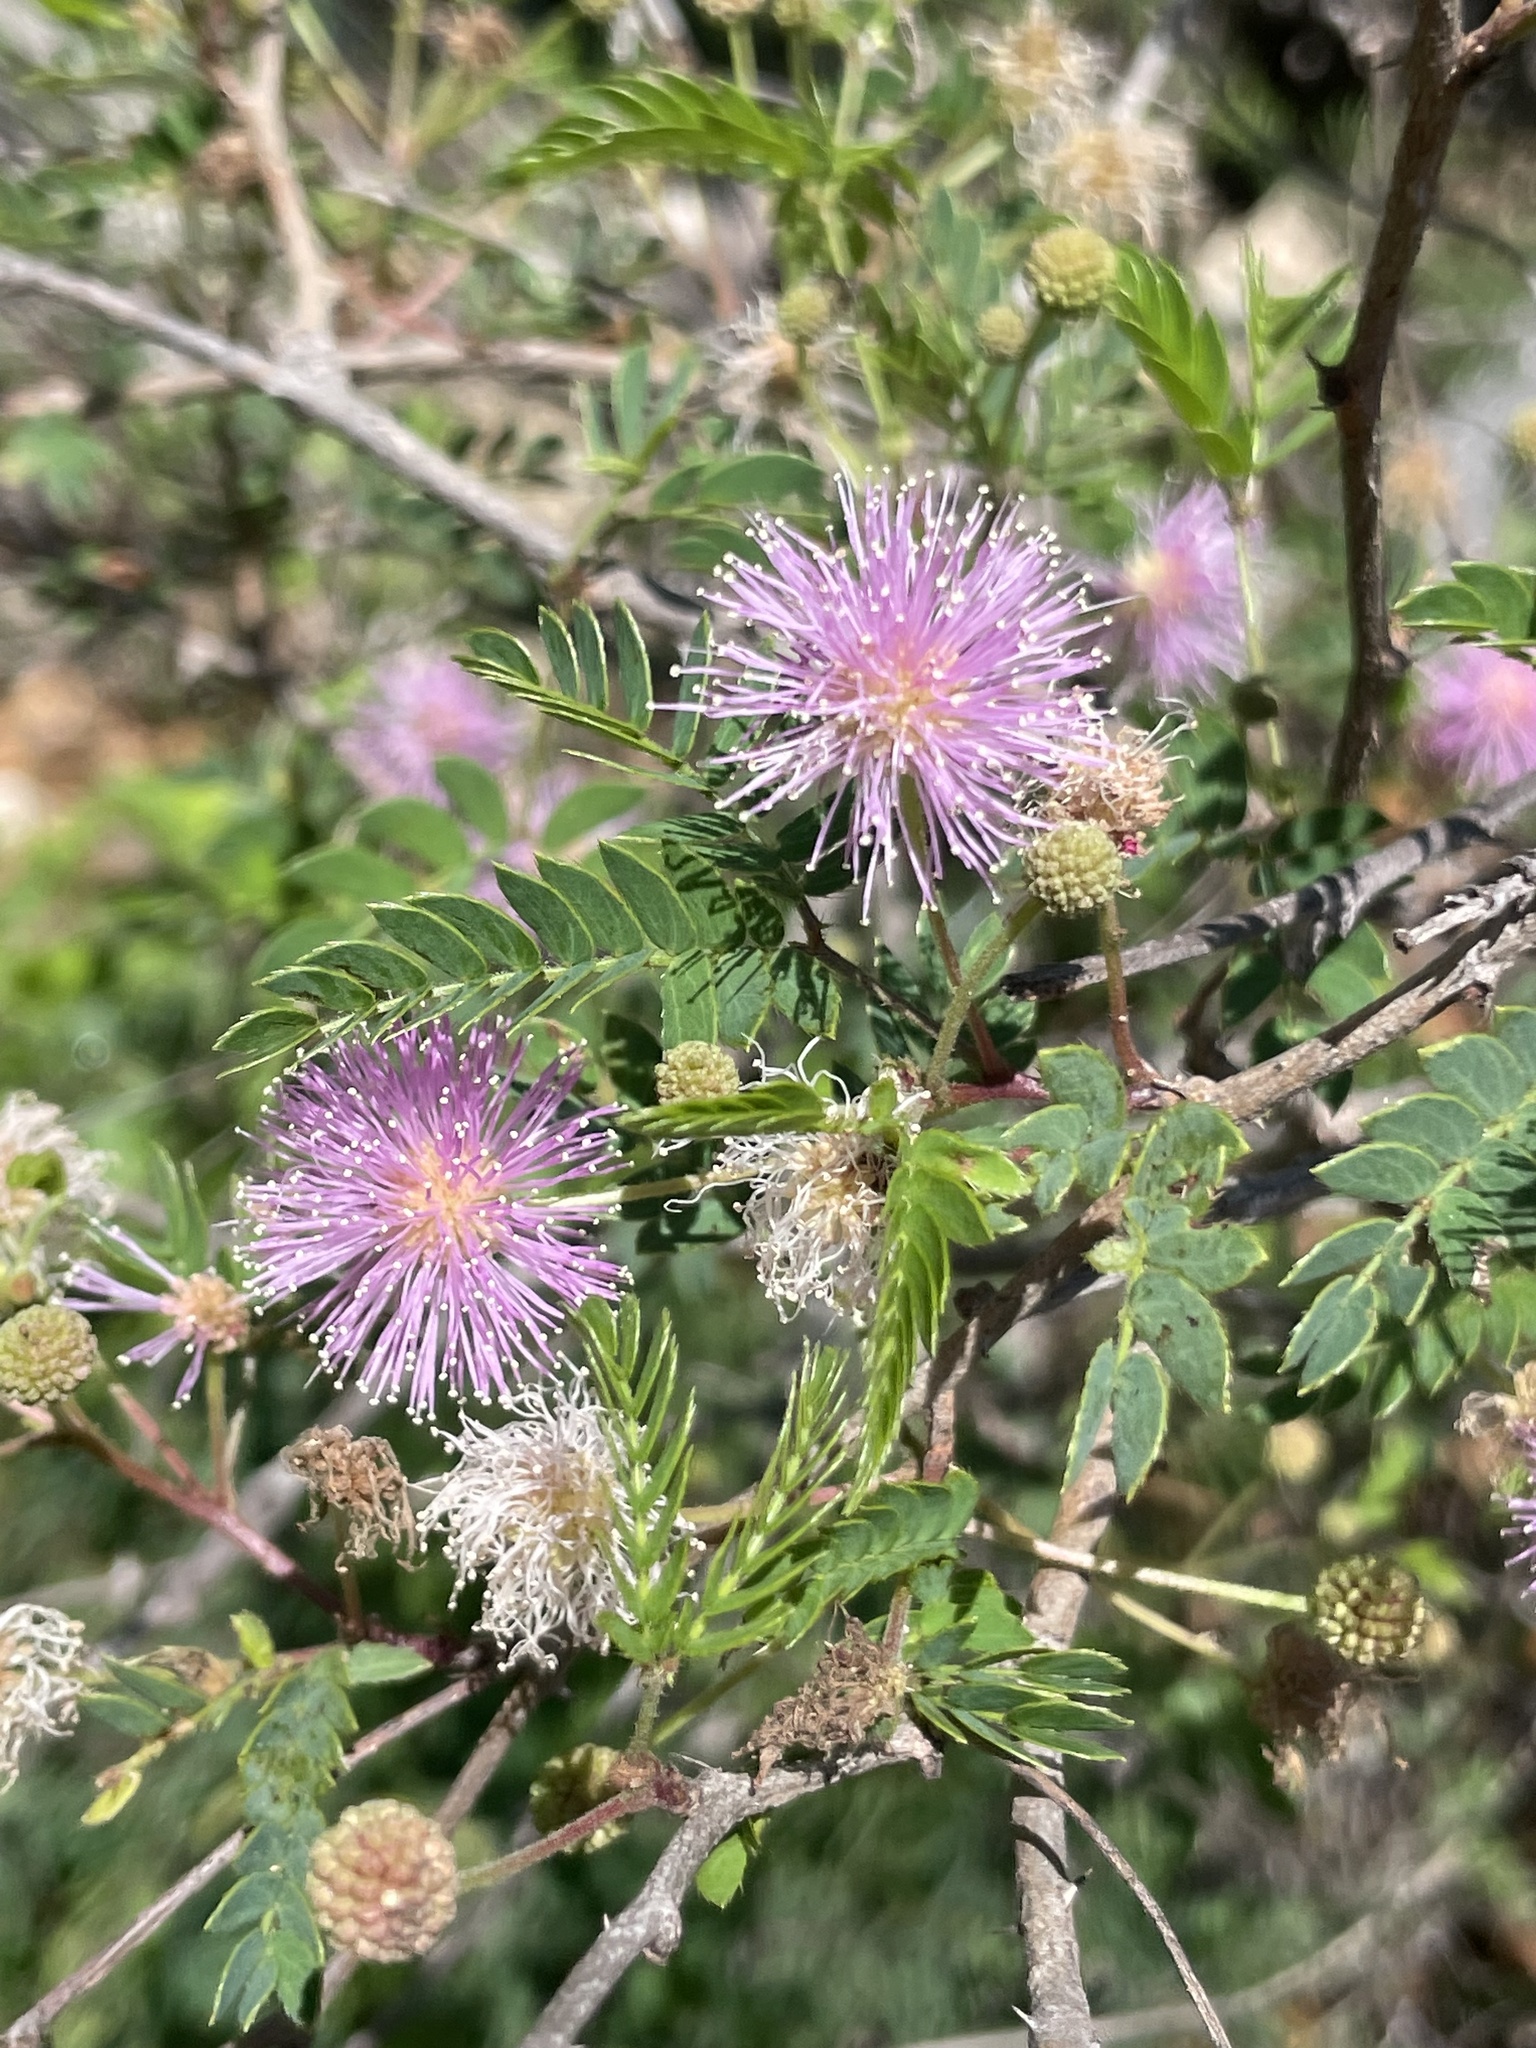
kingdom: Plantae
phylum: Tracheophyta
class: Magnoliopsida
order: Fabales
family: Fabaceae
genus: Mimosa
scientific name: Mimosa tricephala
